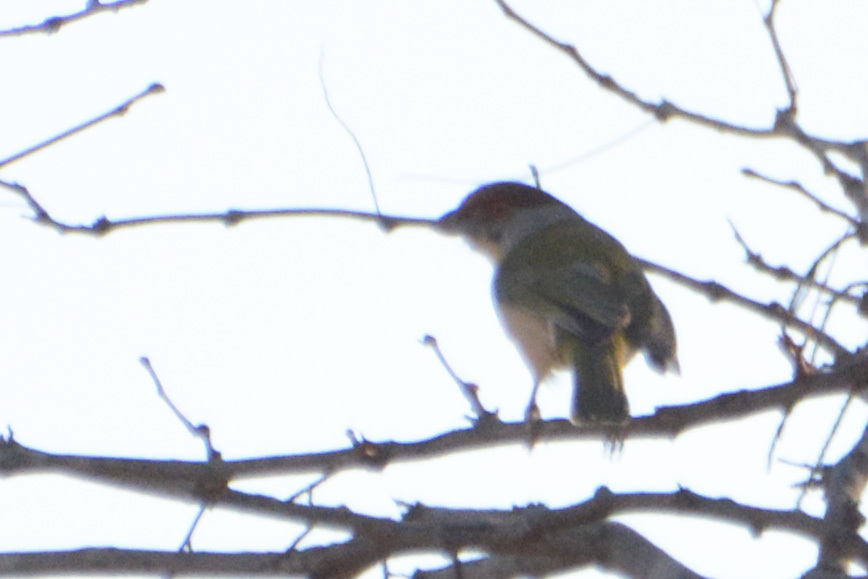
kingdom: Animalia
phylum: Chordata
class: Aves
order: Passeriformes
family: Vireonidae
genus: Cyclarhis
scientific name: Cyclarhis gujanensis
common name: Rufous-browed peppershrike
